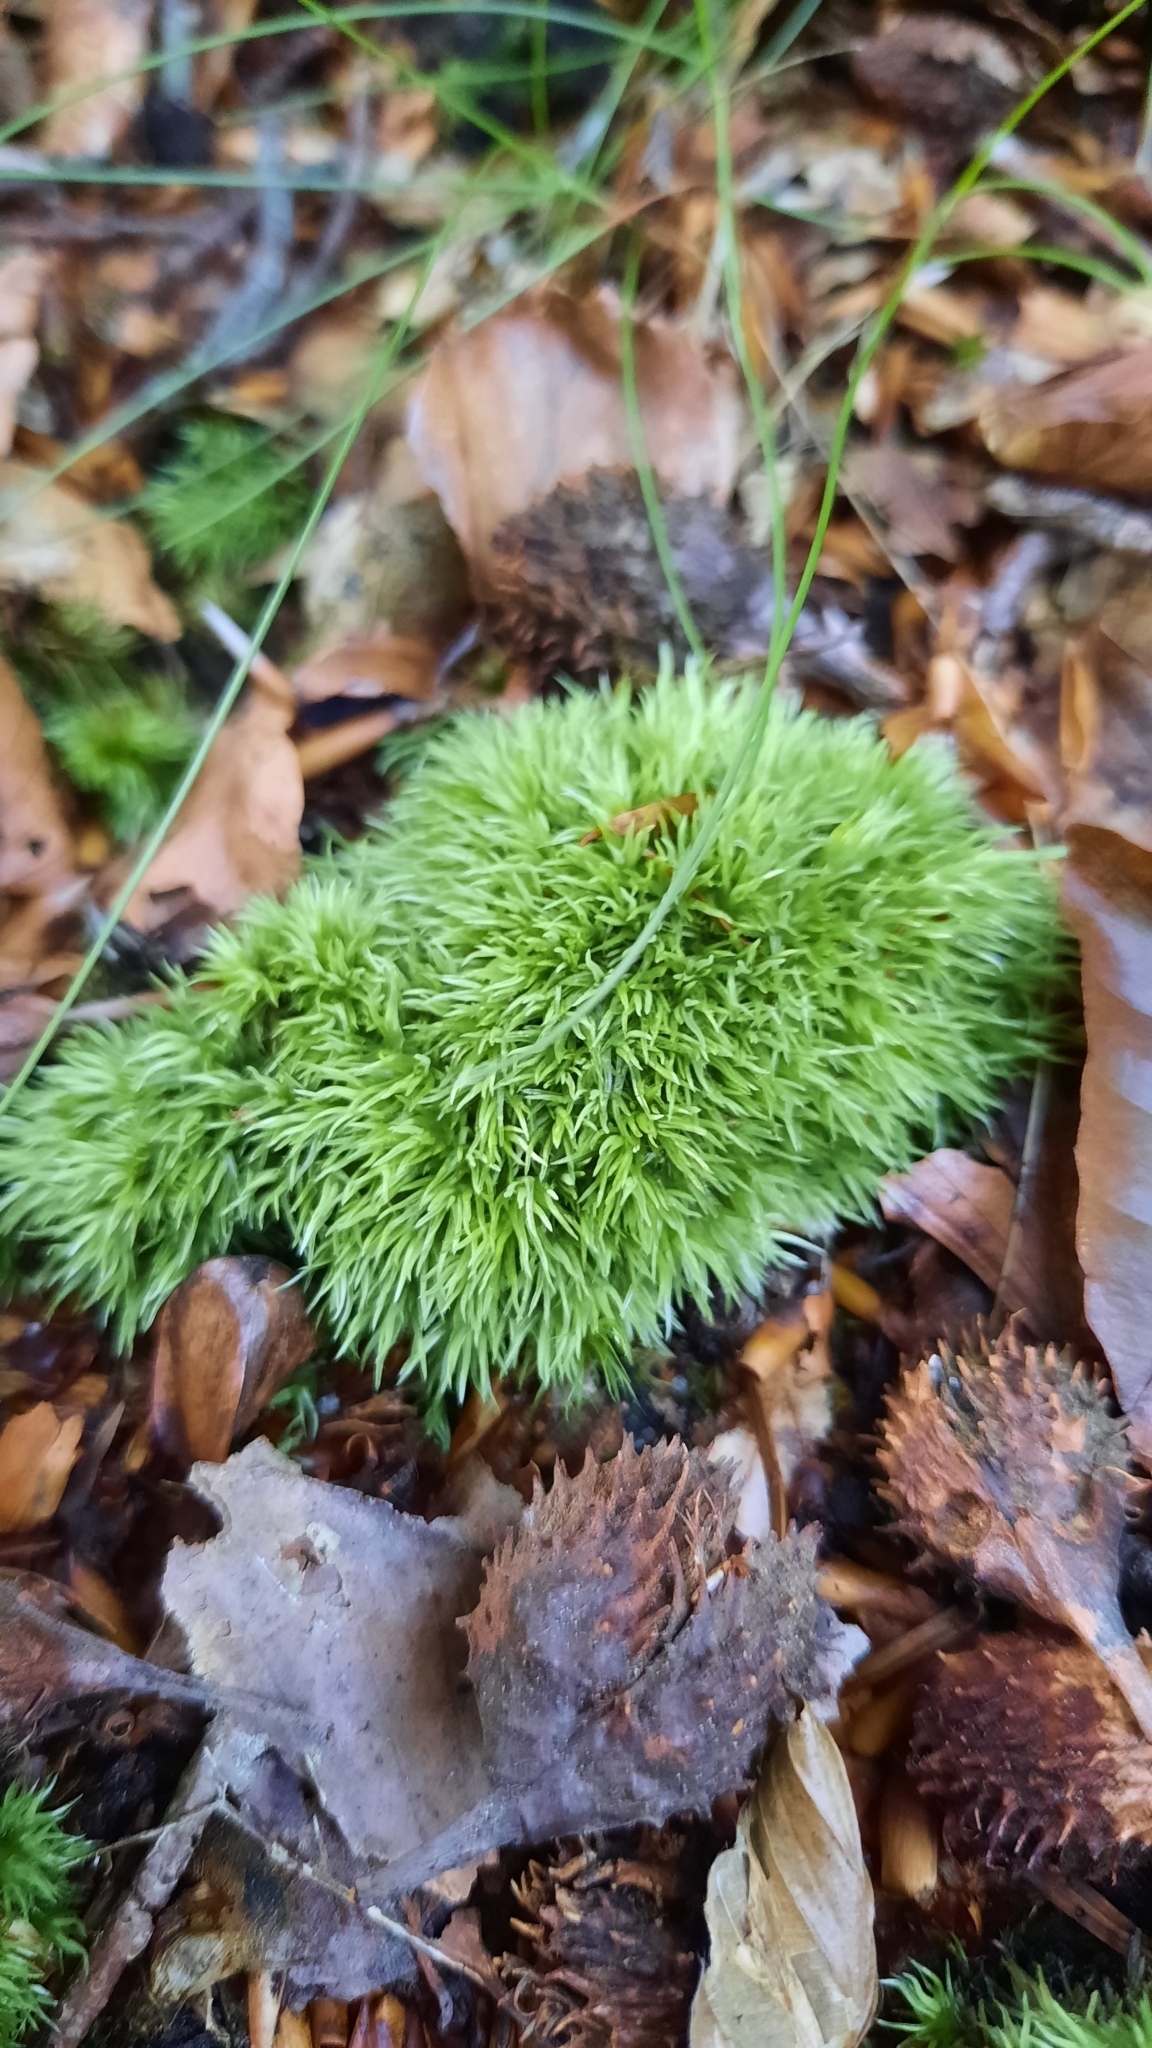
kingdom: Plantae
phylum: Bryophyta
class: Bryopsida
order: Dicranales
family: Leucobryaceae
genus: Leucobryum
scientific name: Leucobryum glaucum
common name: Large white-moss
